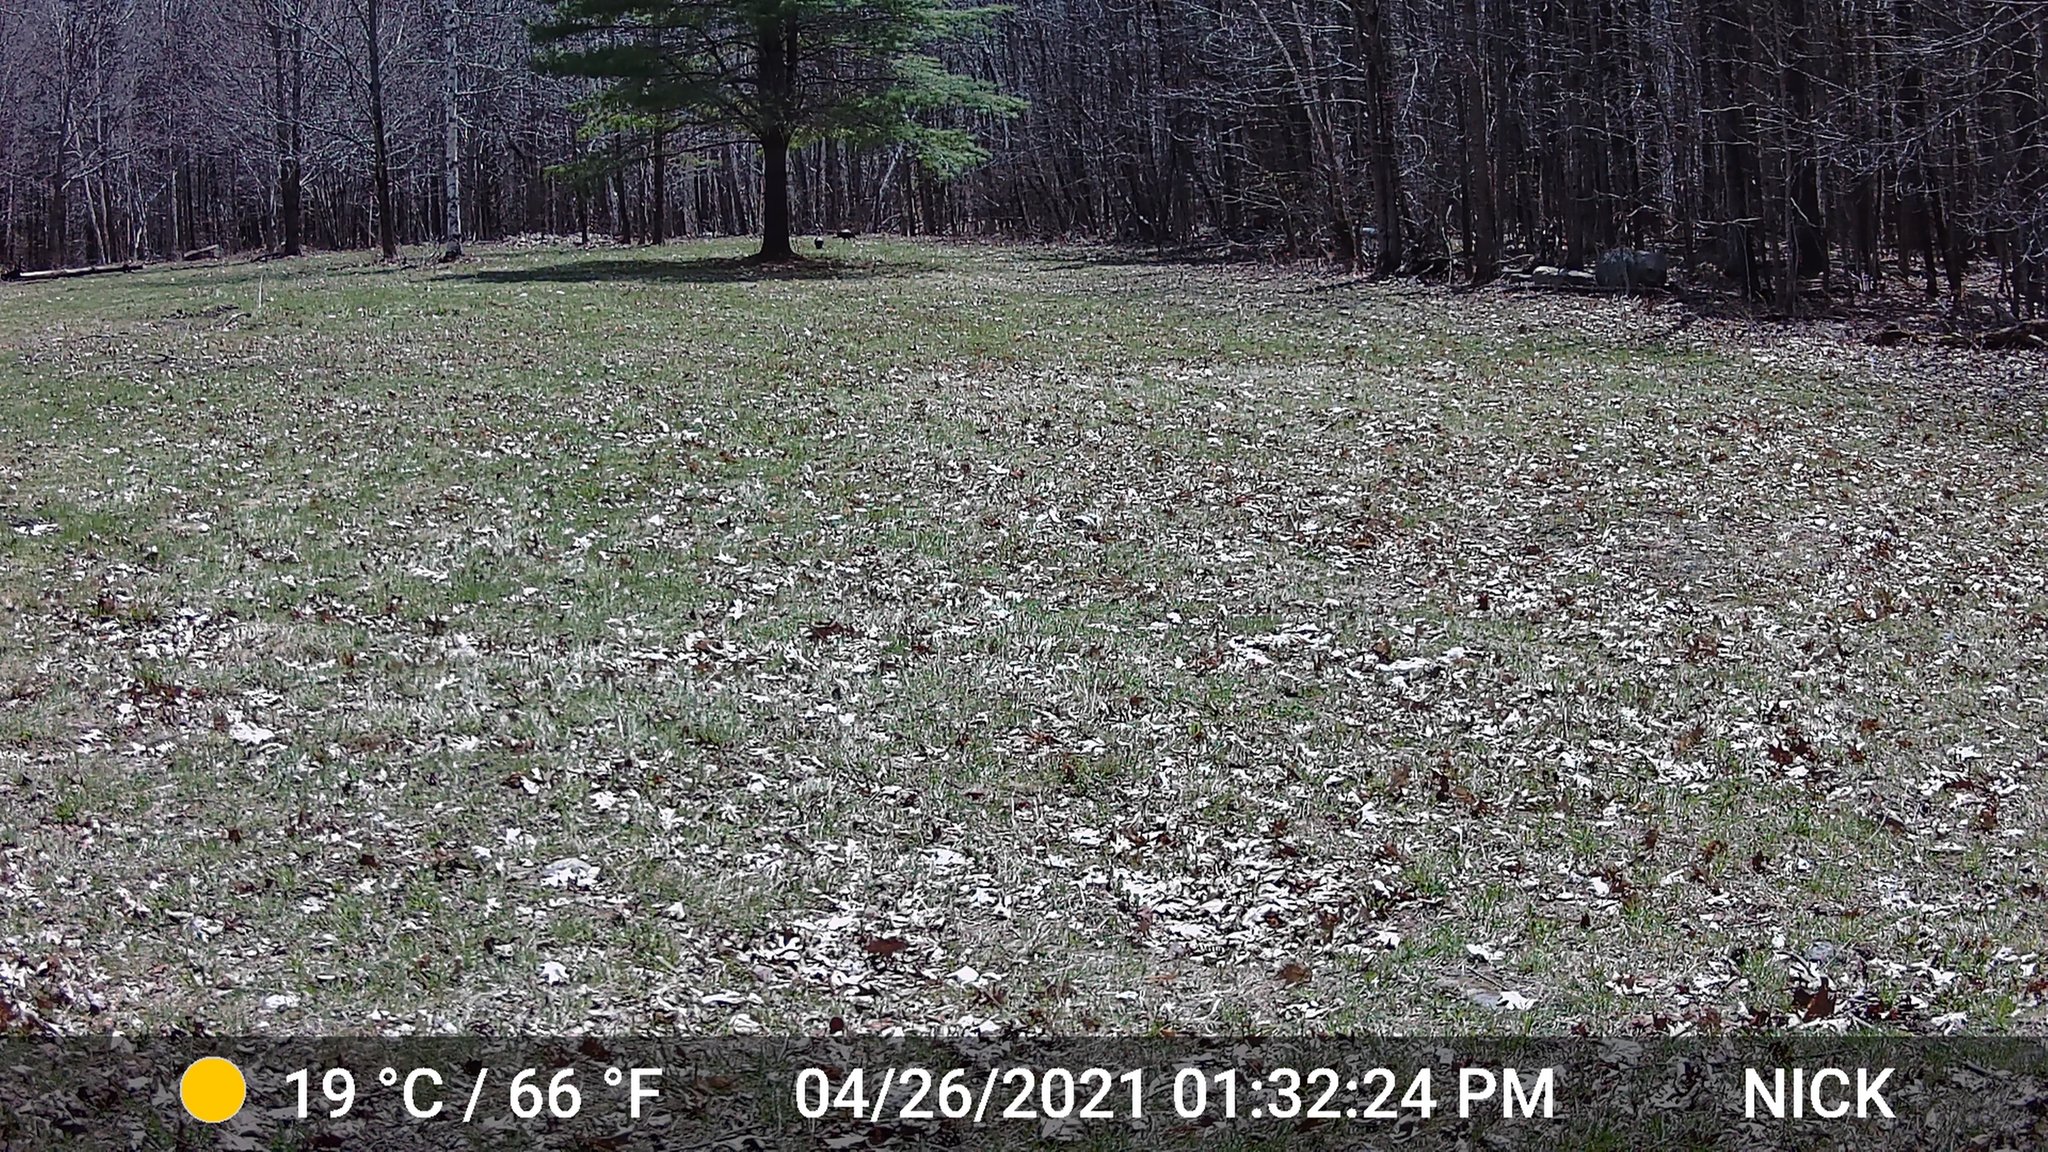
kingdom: Animalia
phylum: Chordata
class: Aves
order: Galliformes
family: Phasianidae
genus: Meleagris
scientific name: Meleagris gallopavo
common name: Wild turkey
